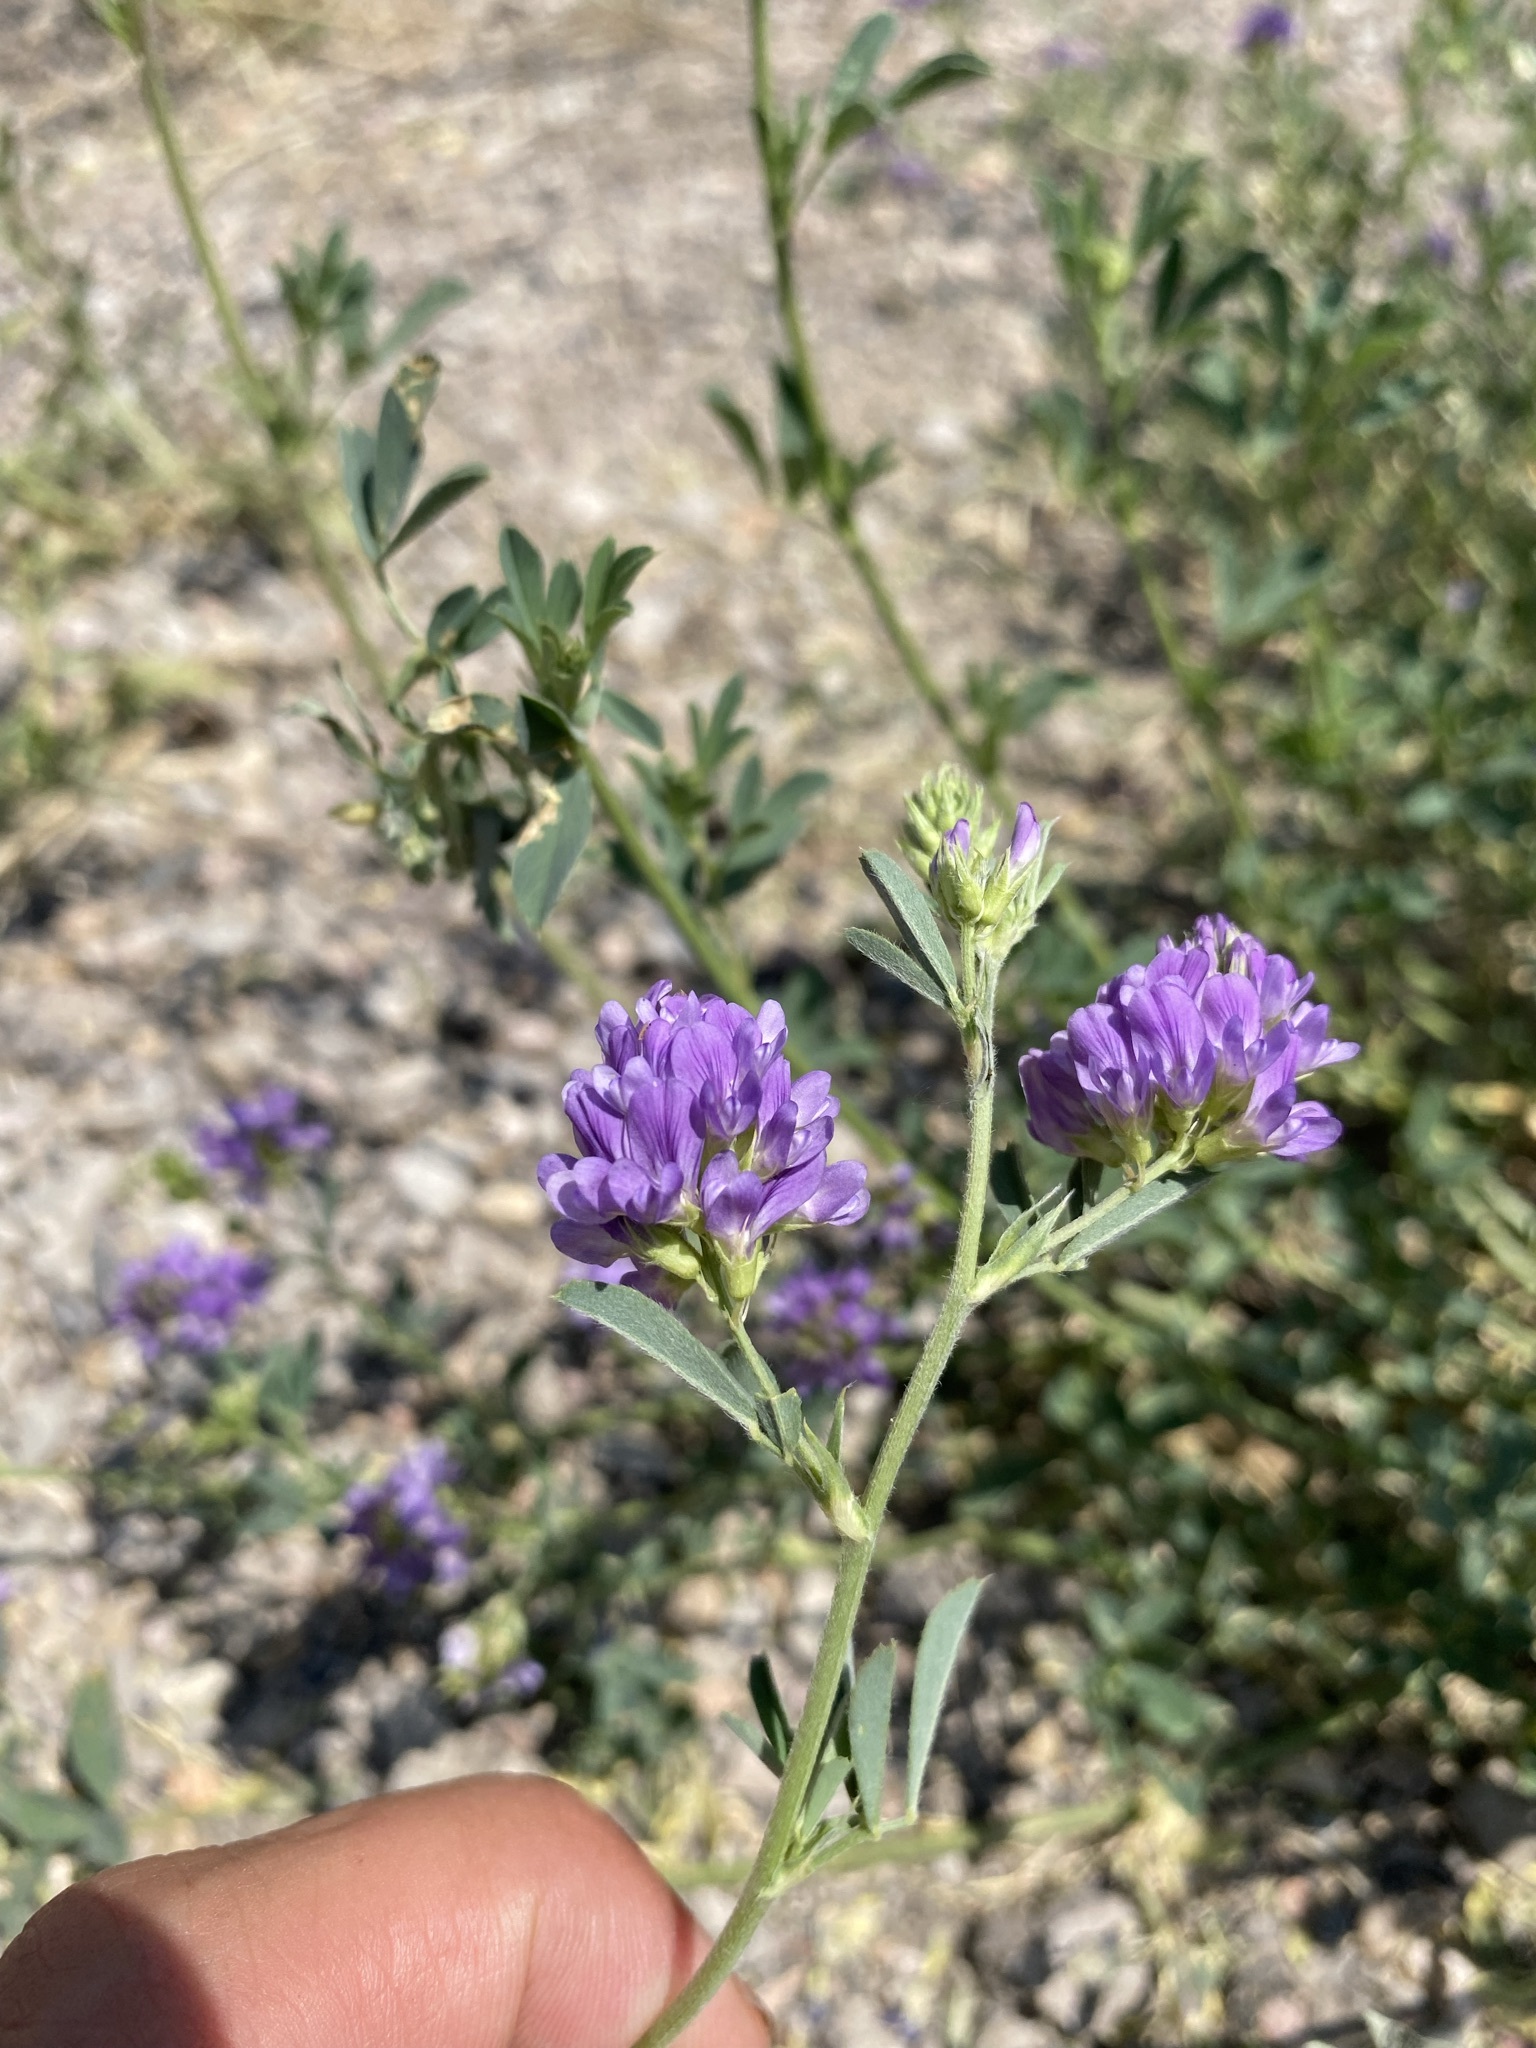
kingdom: Plantae
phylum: Tracheophyta
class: Magnoliopsida
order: Fabales
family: Fabaceae
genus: Medicago
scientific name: Medicago sativa
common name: Alfalfa
